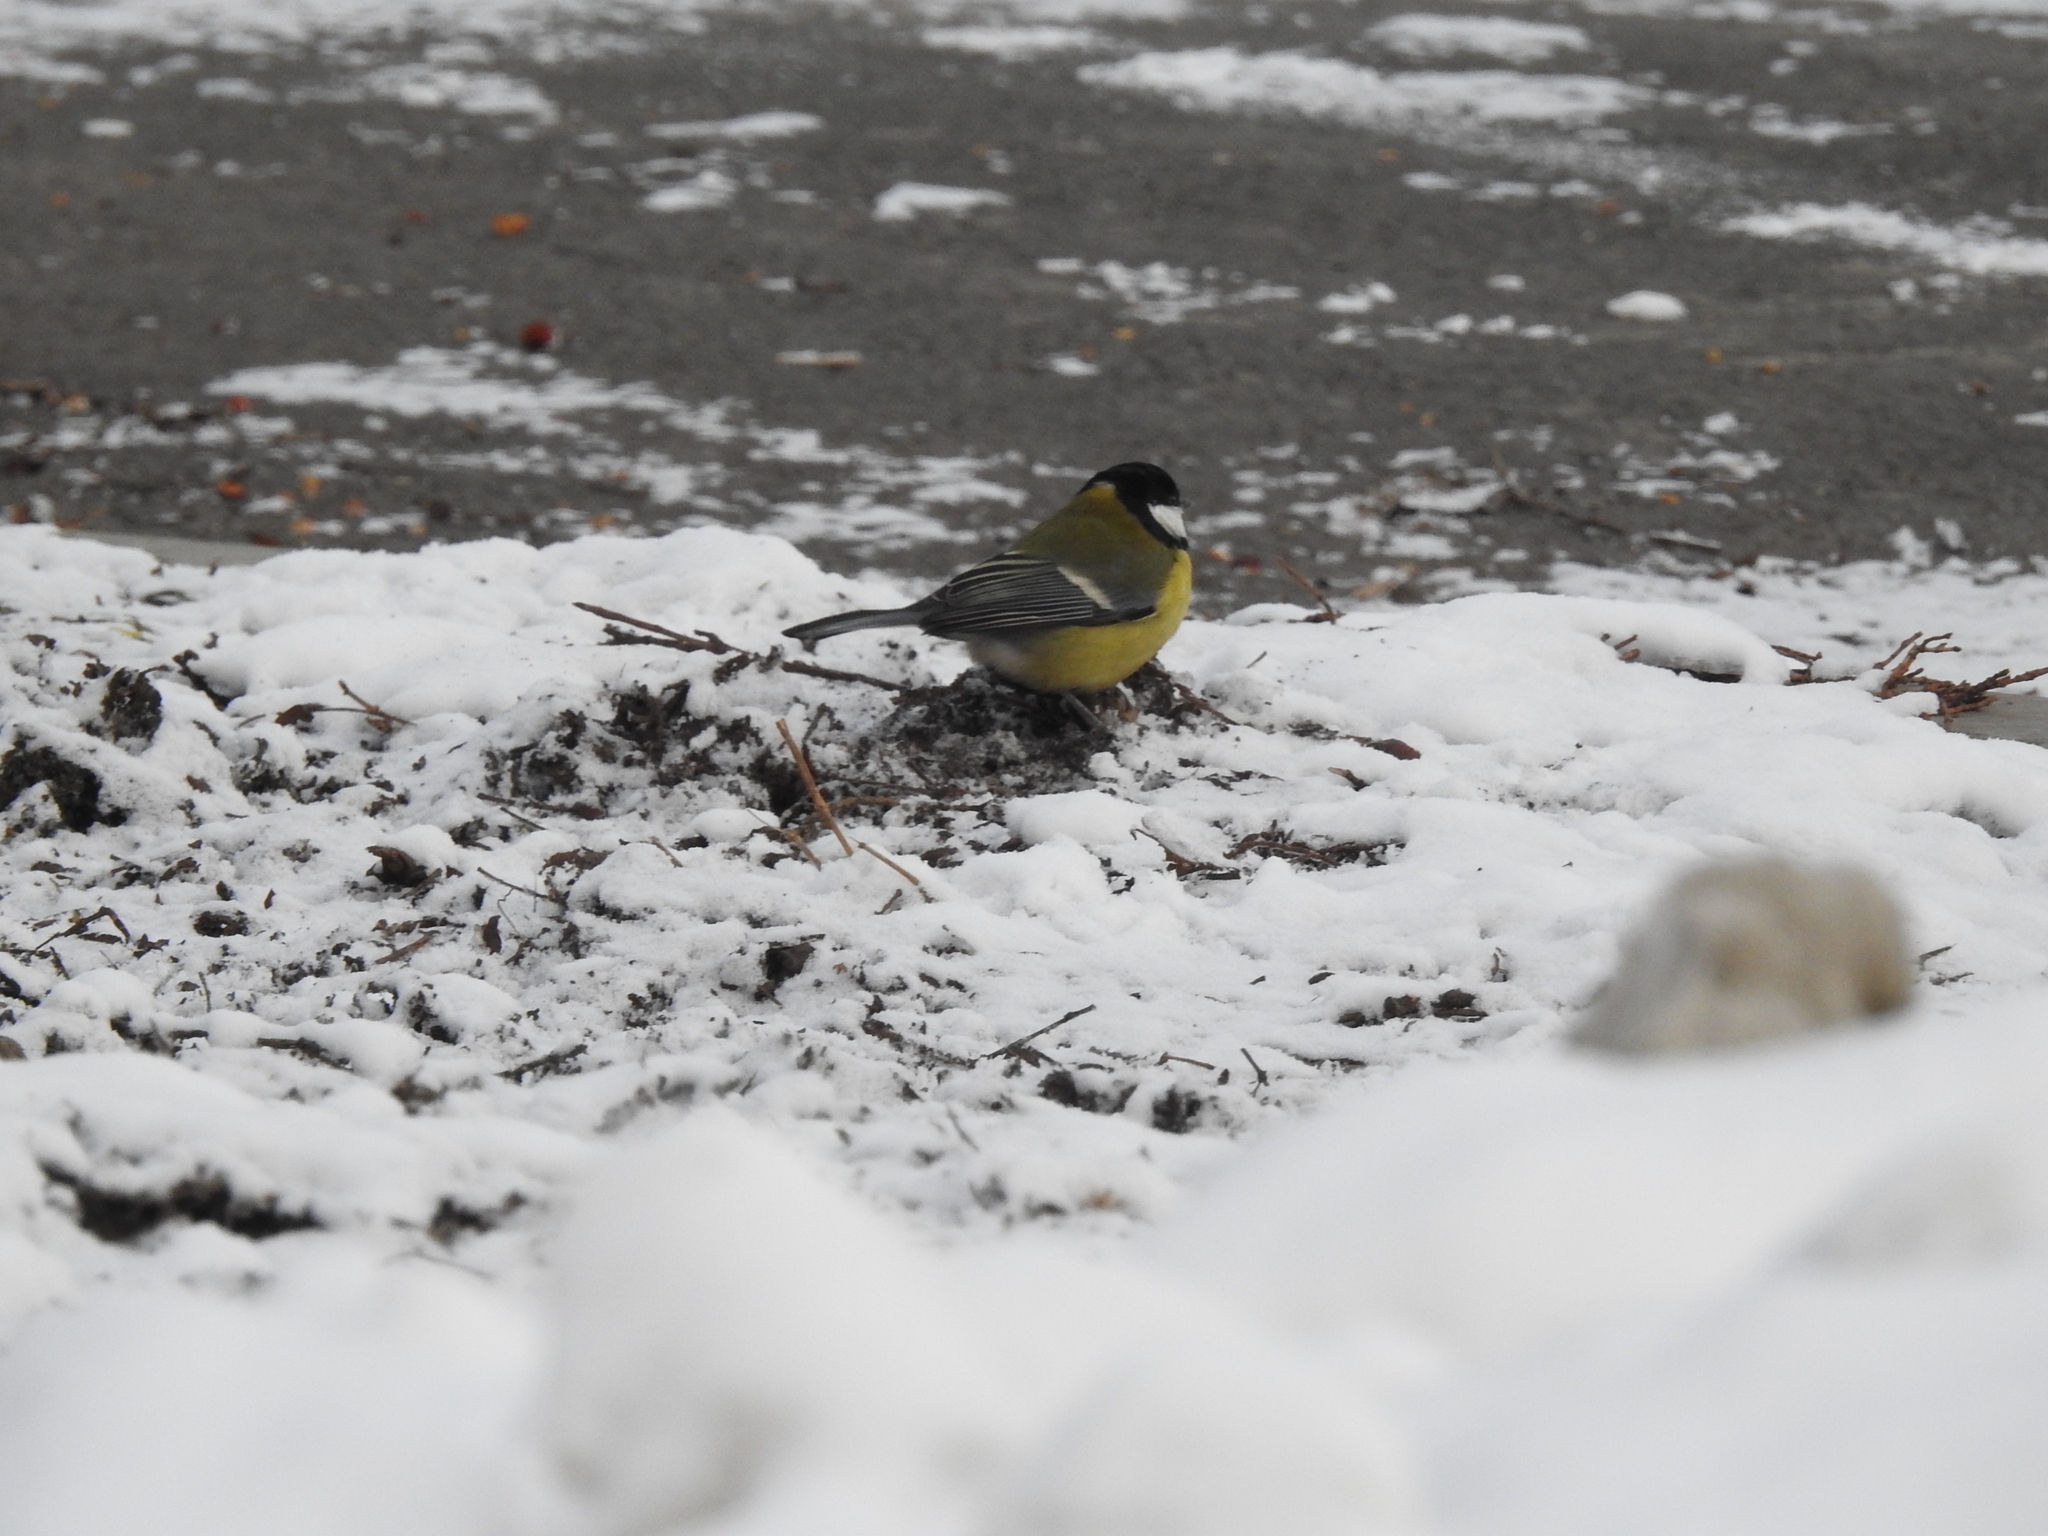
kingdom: Animalia
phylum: Chordata
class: Aves
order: Passeriformes
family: Paridae
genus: Parus
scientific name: Parus major
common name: Great tit
